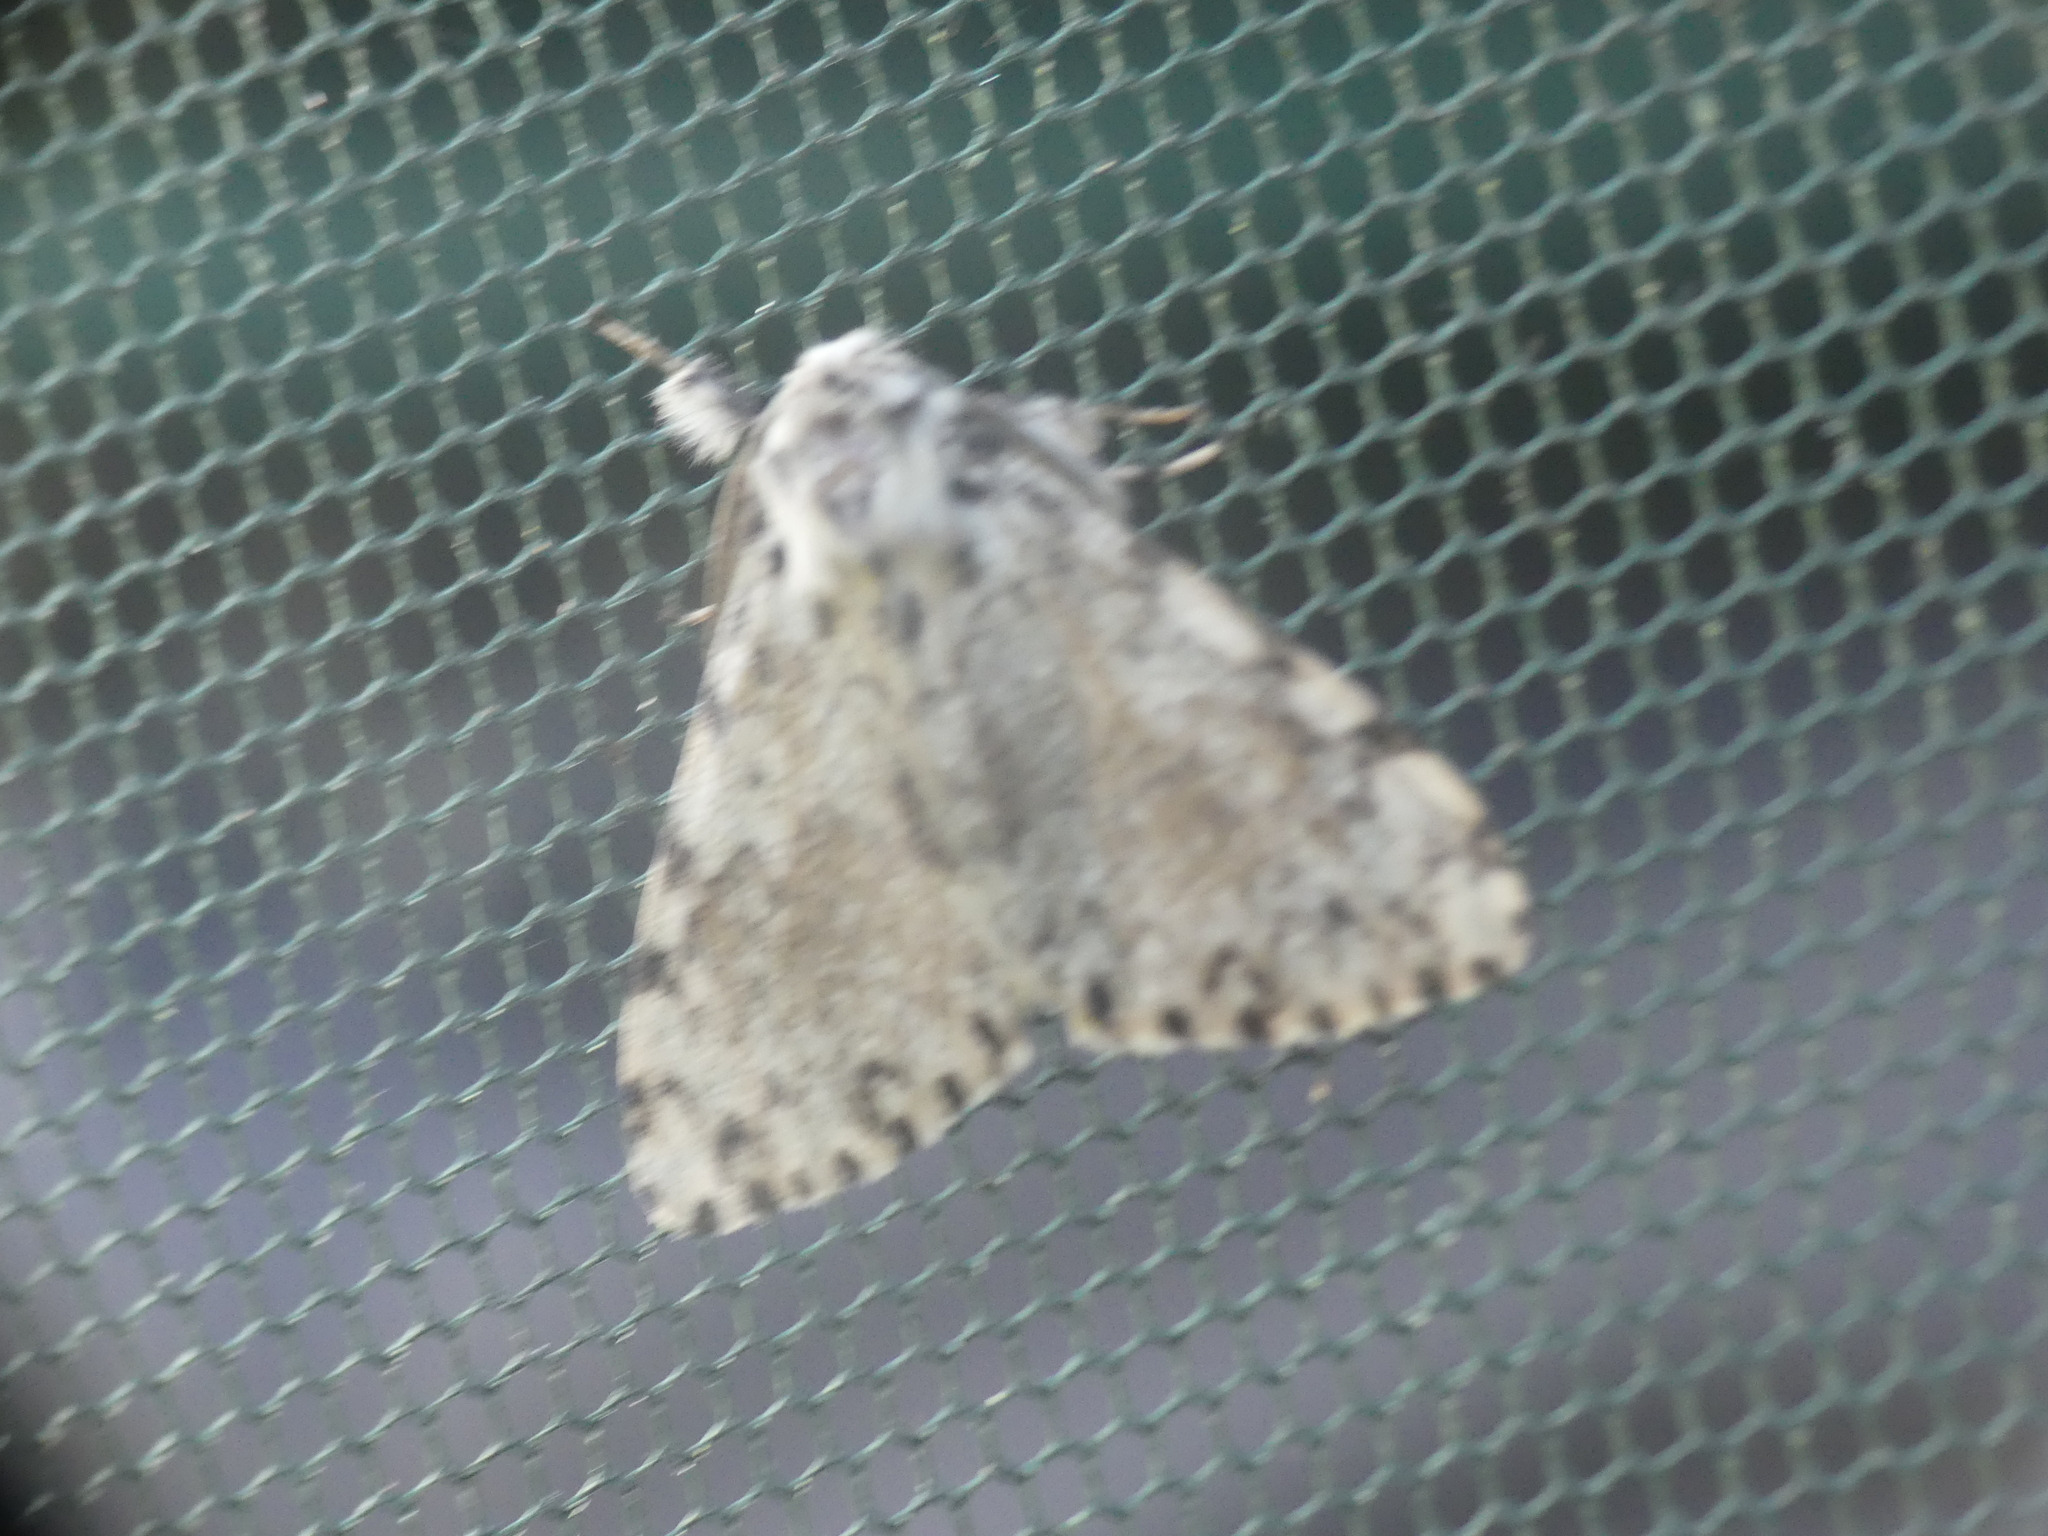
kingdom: Animalia
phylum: Arthropoda
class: Insecta
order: Lepidoptera
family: Erebidae
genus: Lymantria
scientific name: Lymantria monacha
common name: Black arches
